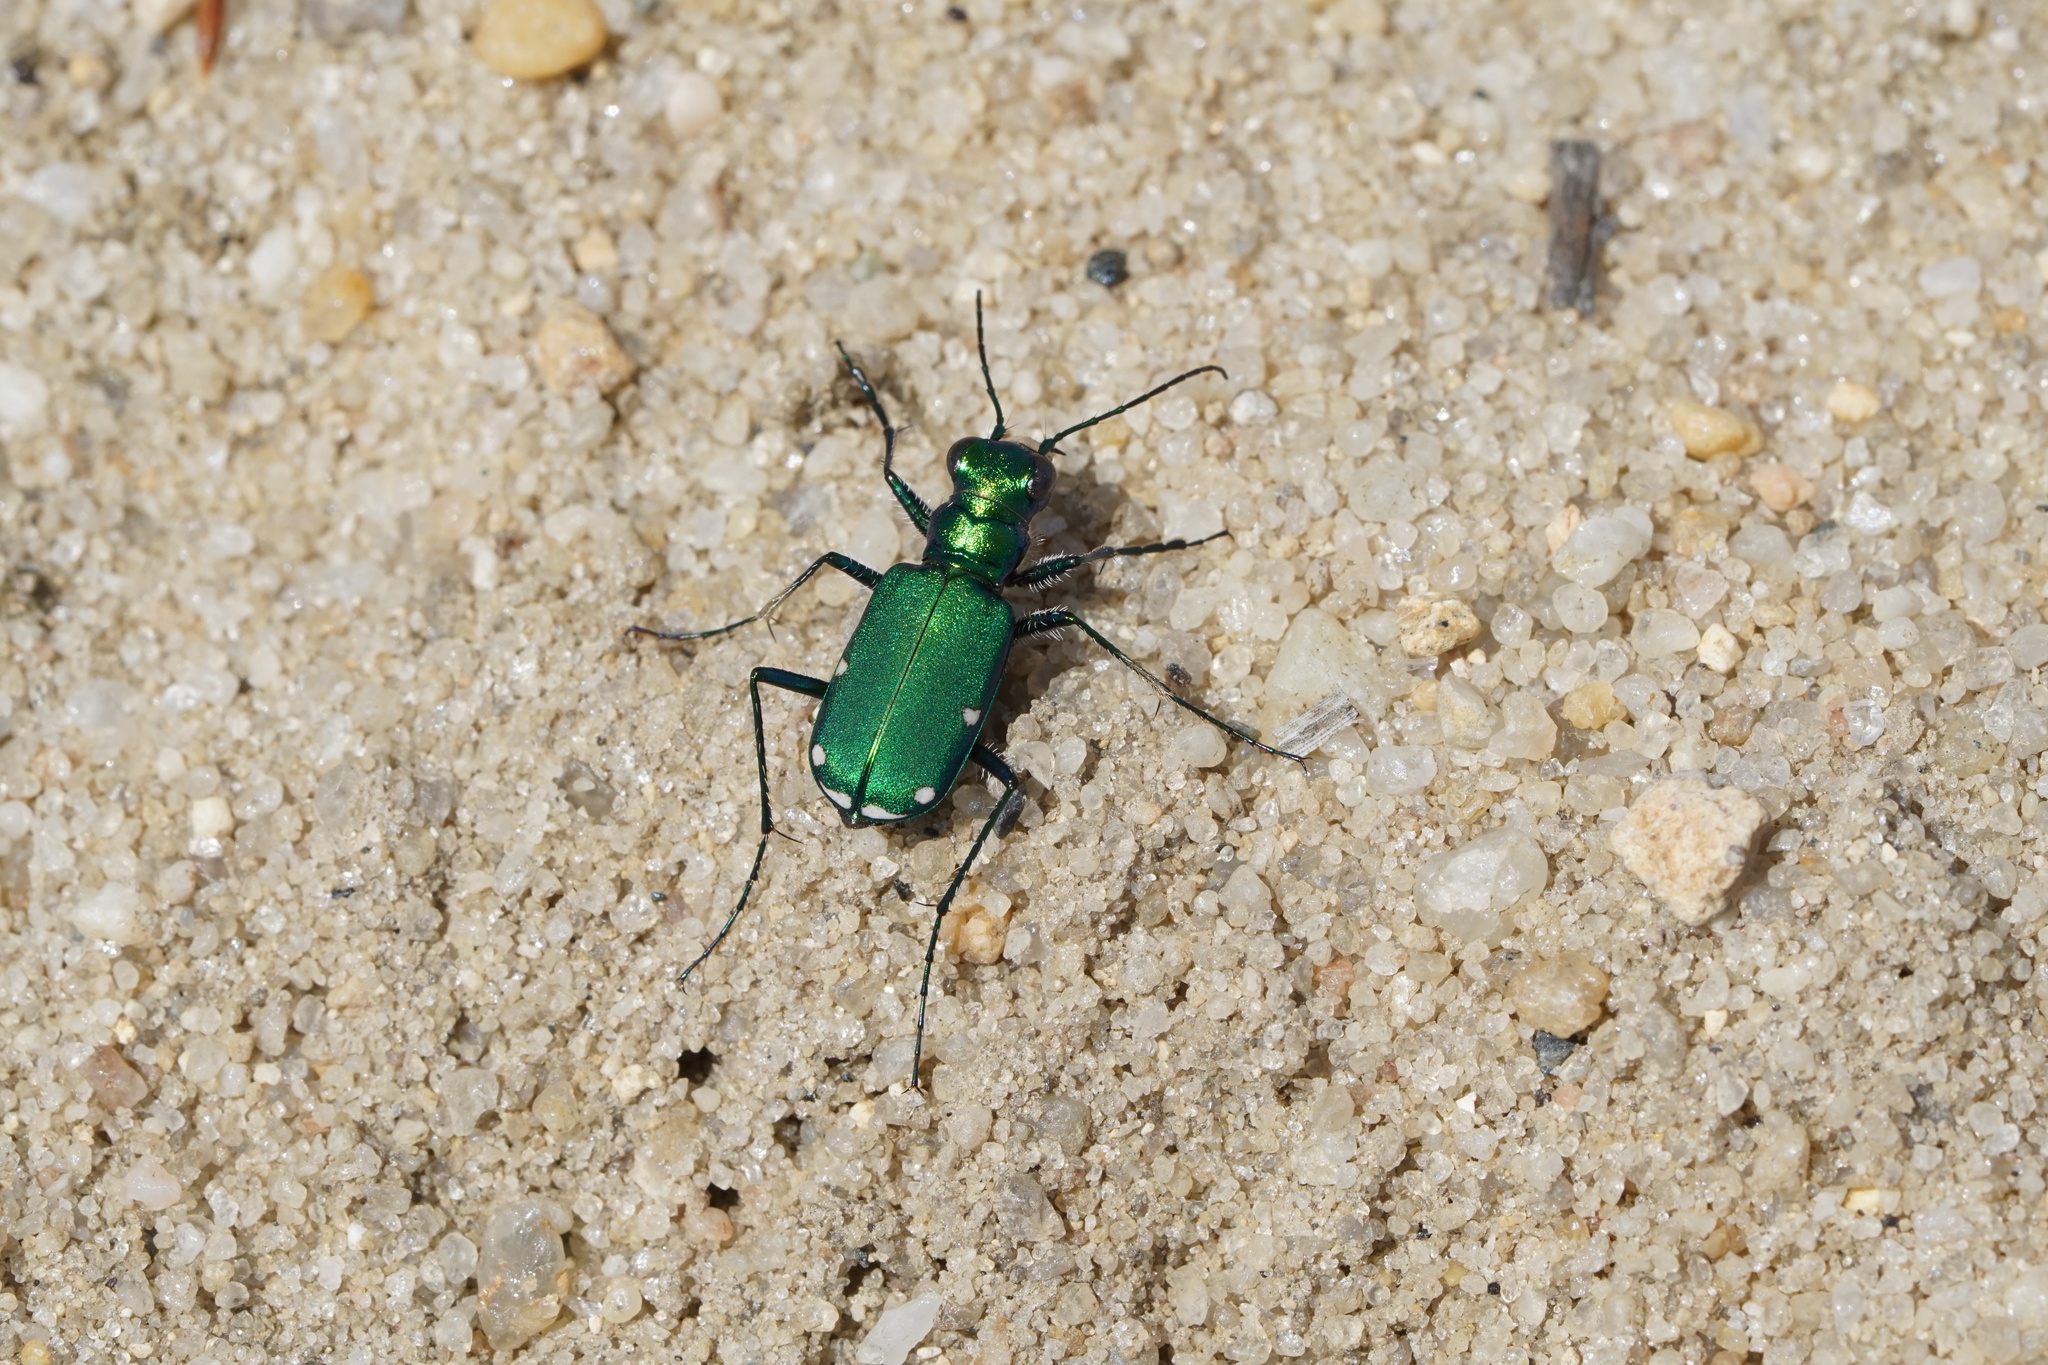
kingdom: Animalia
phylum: Arthropoda
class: Insecta
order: Coleoptera
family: Carabidae
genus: Cicindela
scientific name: Cicindela sexguttata
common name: Six-spotted tiger beetle
